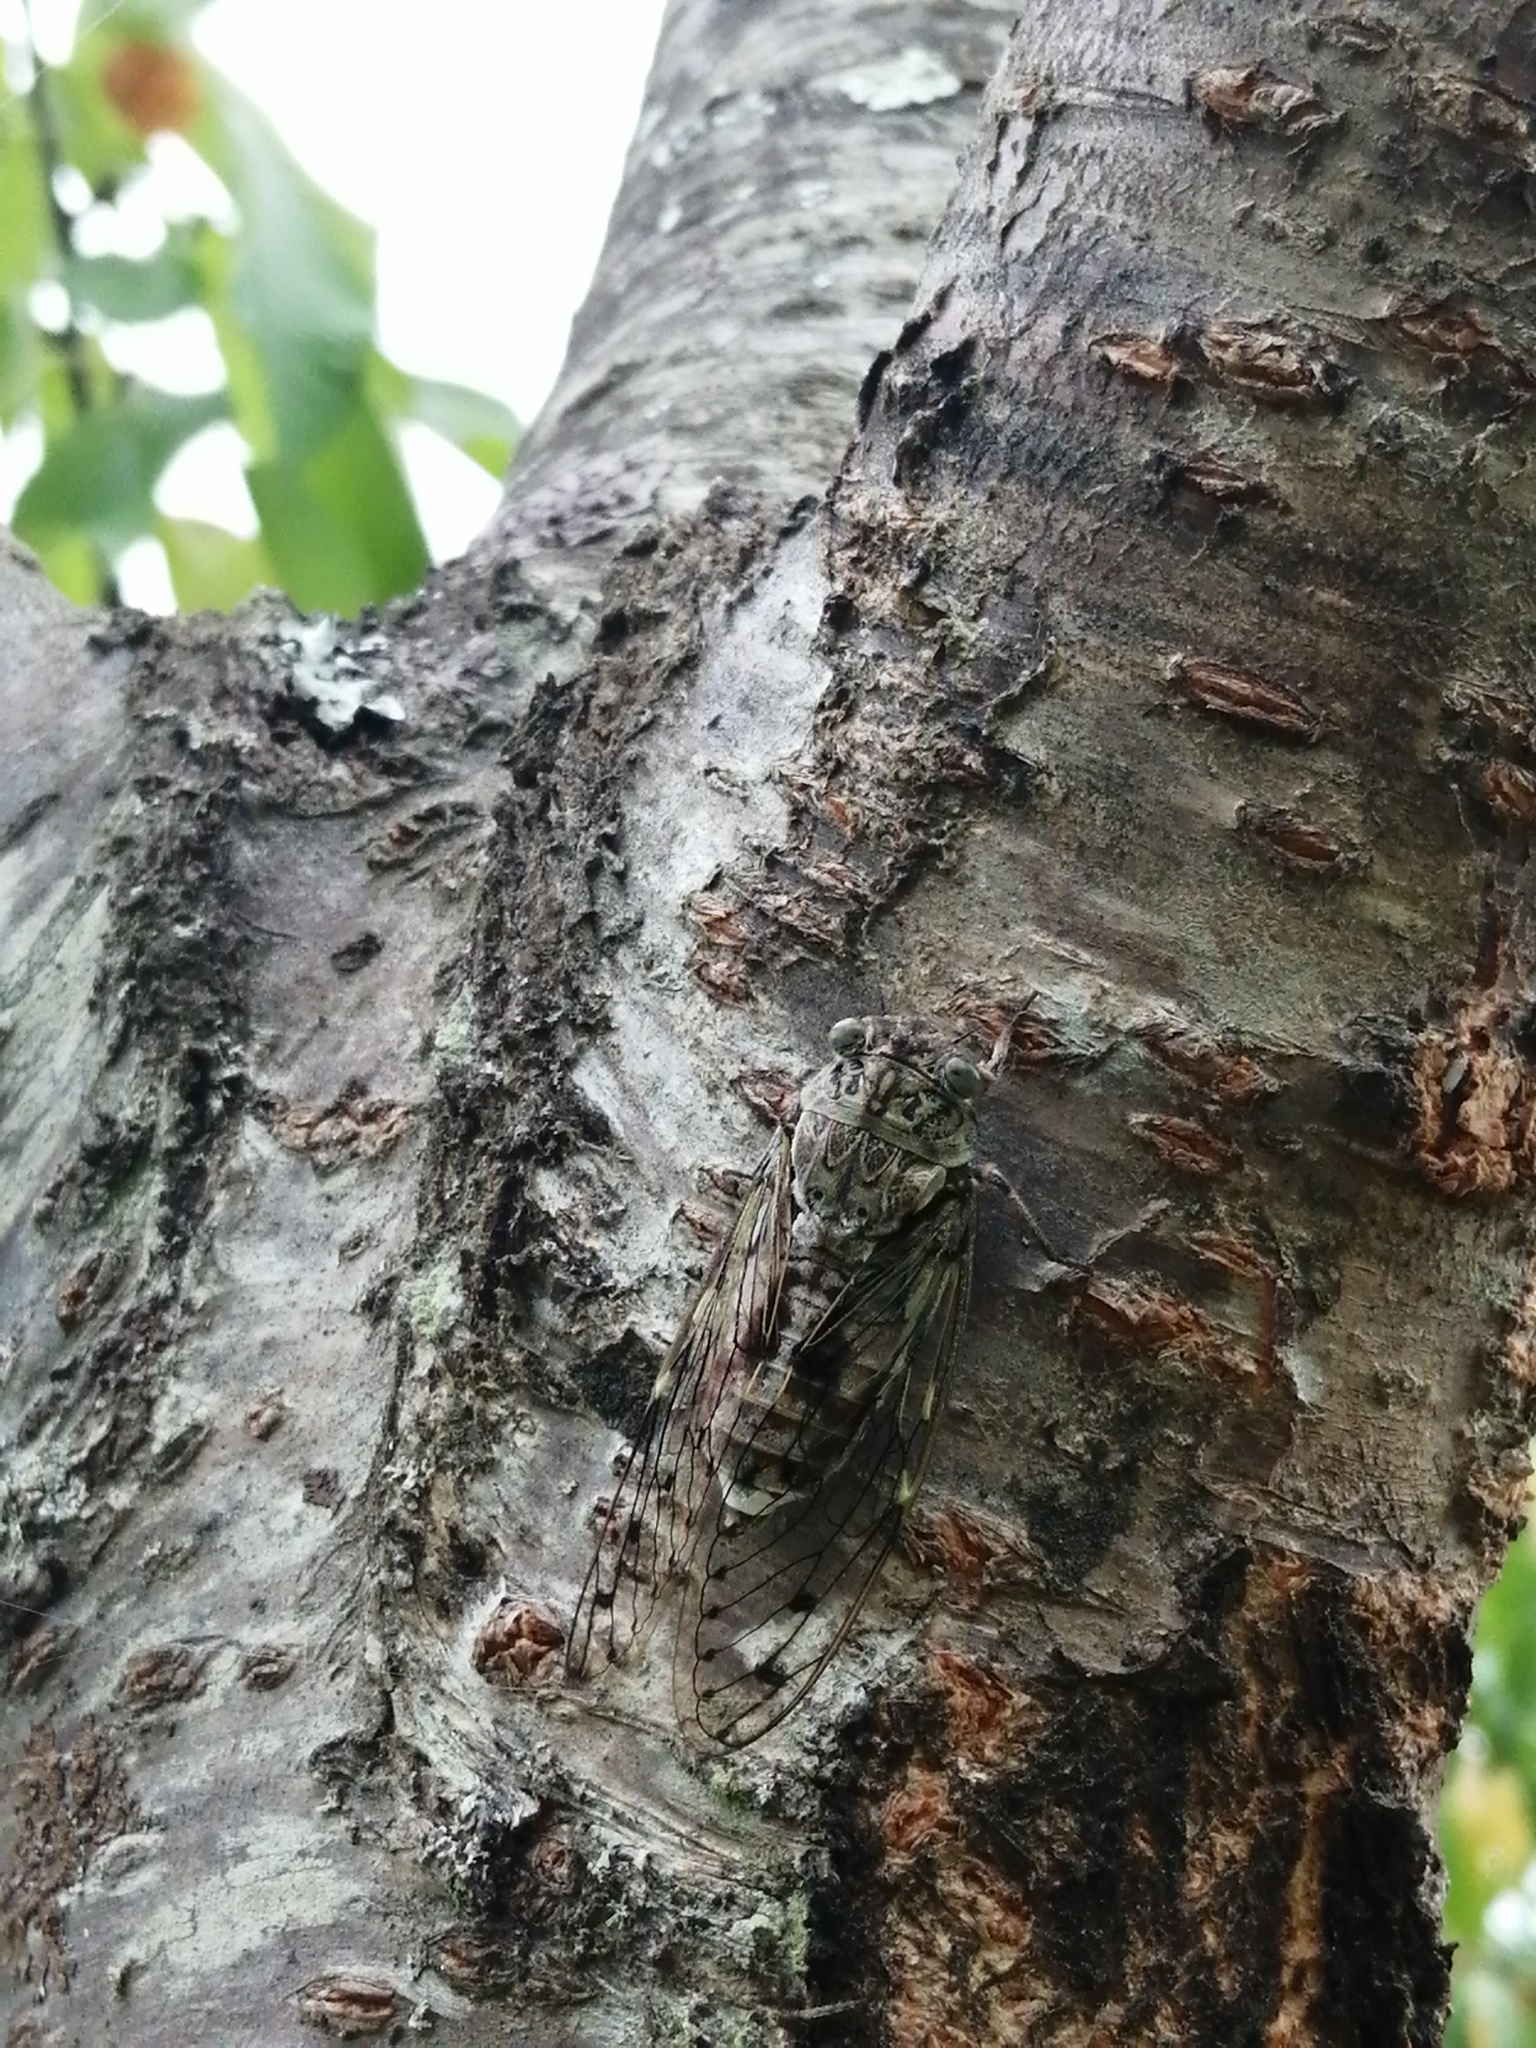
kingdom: Animalia
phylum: Arthropoda
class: Insecta
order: Hemiptera
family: Cicadidae
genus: Cicada
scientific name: Cicada orni
